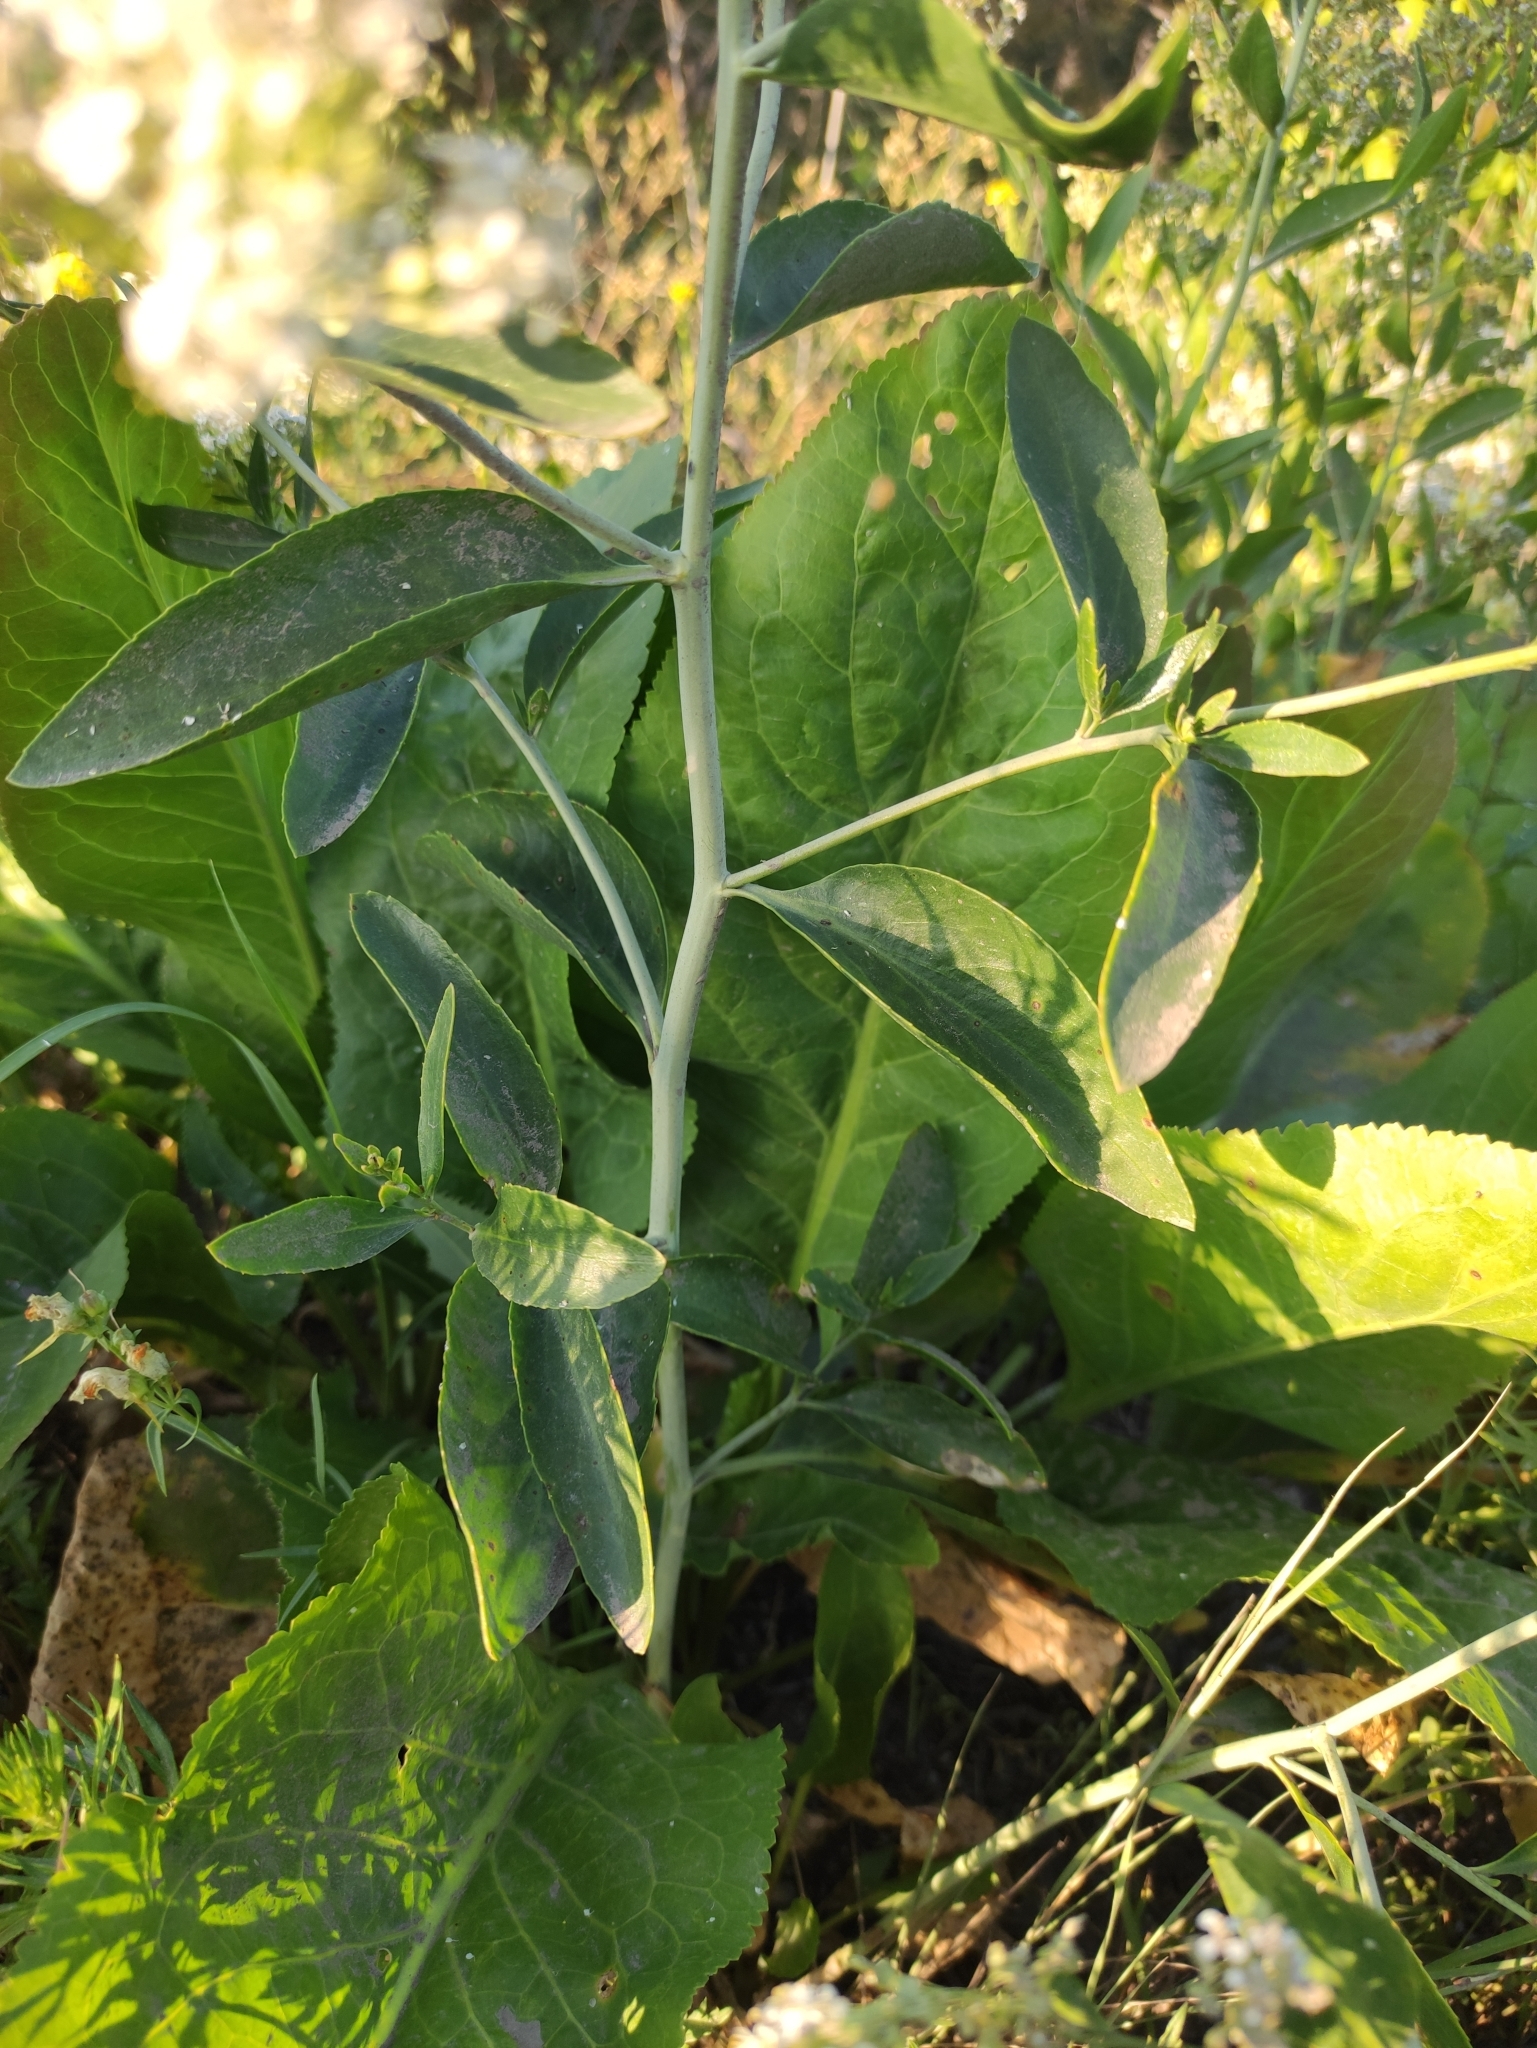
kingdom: Plantae
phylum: Tracheophyta
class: Magnoliopsida
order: Brassicales
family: Brassicaceae
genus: Lepidium
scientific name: Lepidium latifolium
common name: Dittander
